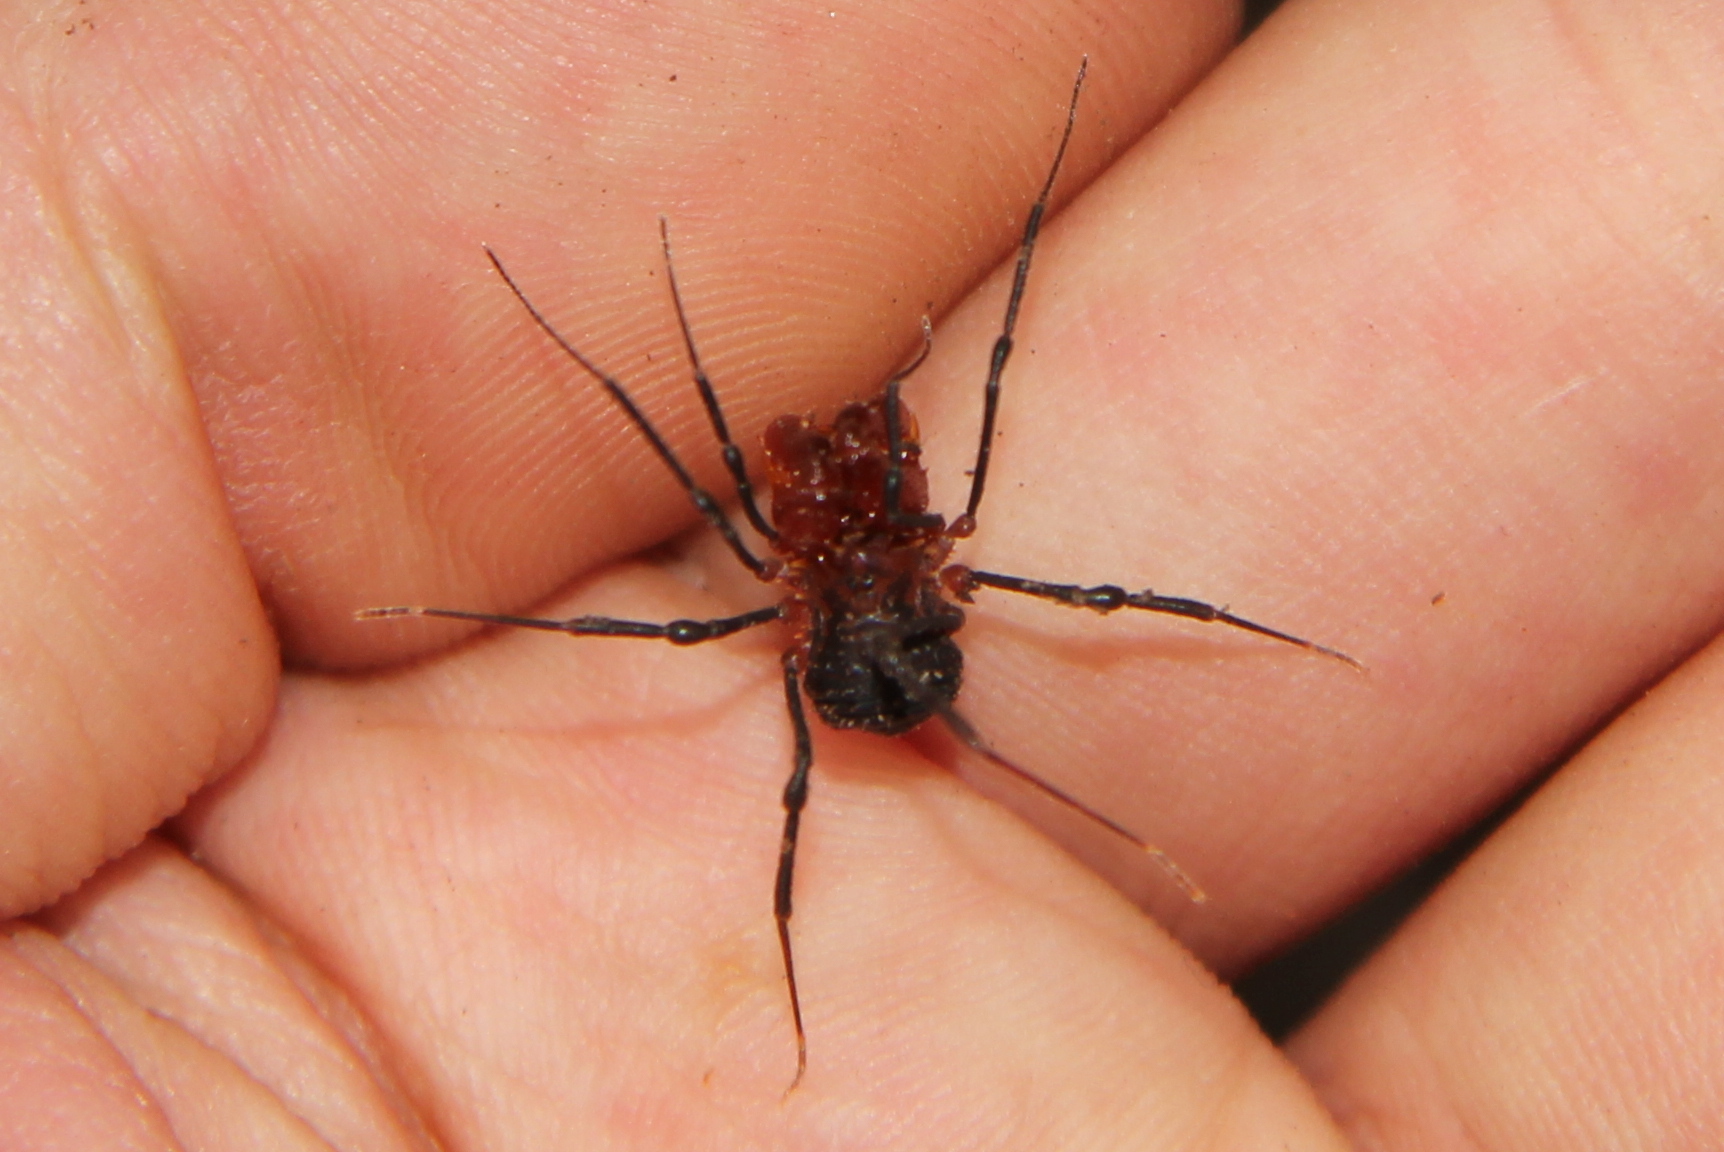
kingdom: Animalia
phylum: Arthropoda
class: Arachnida
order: Opiliones
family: Triaenonychidae
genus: Sorensenella
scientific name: Sorensenella prehensor
